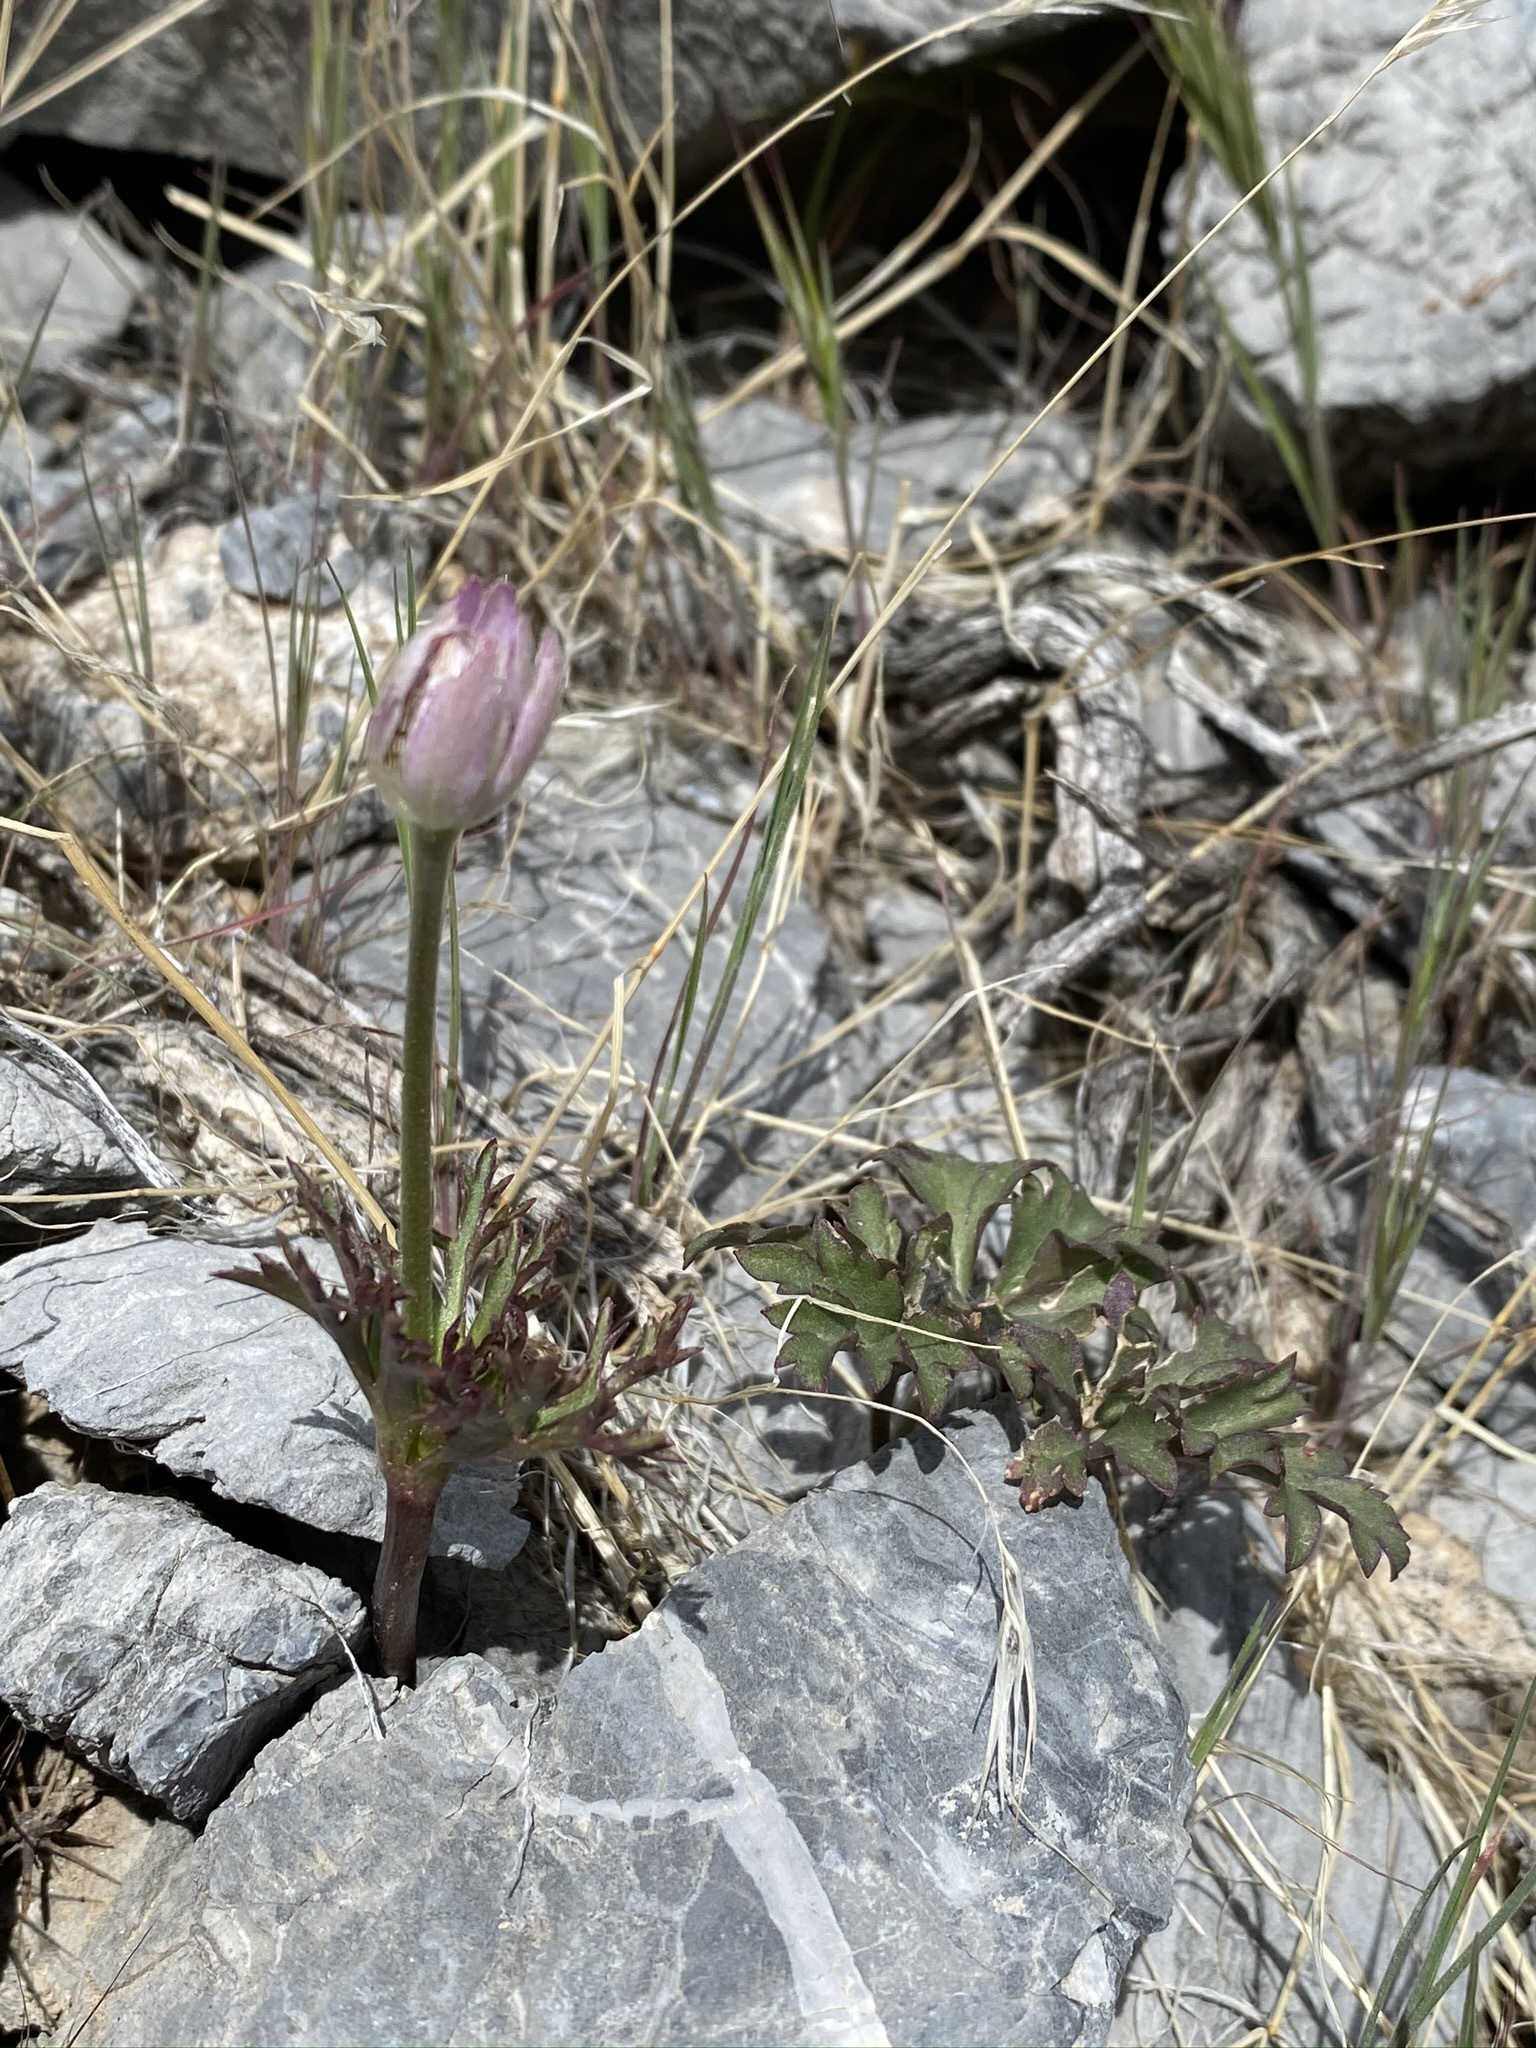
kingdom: Plantae
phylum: Tracheophyta
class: Magnoliopsida
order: Ranunculales
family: Ranunculaceae
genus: Anemone
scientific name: Anemone tuberosa
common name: Desert anemone
